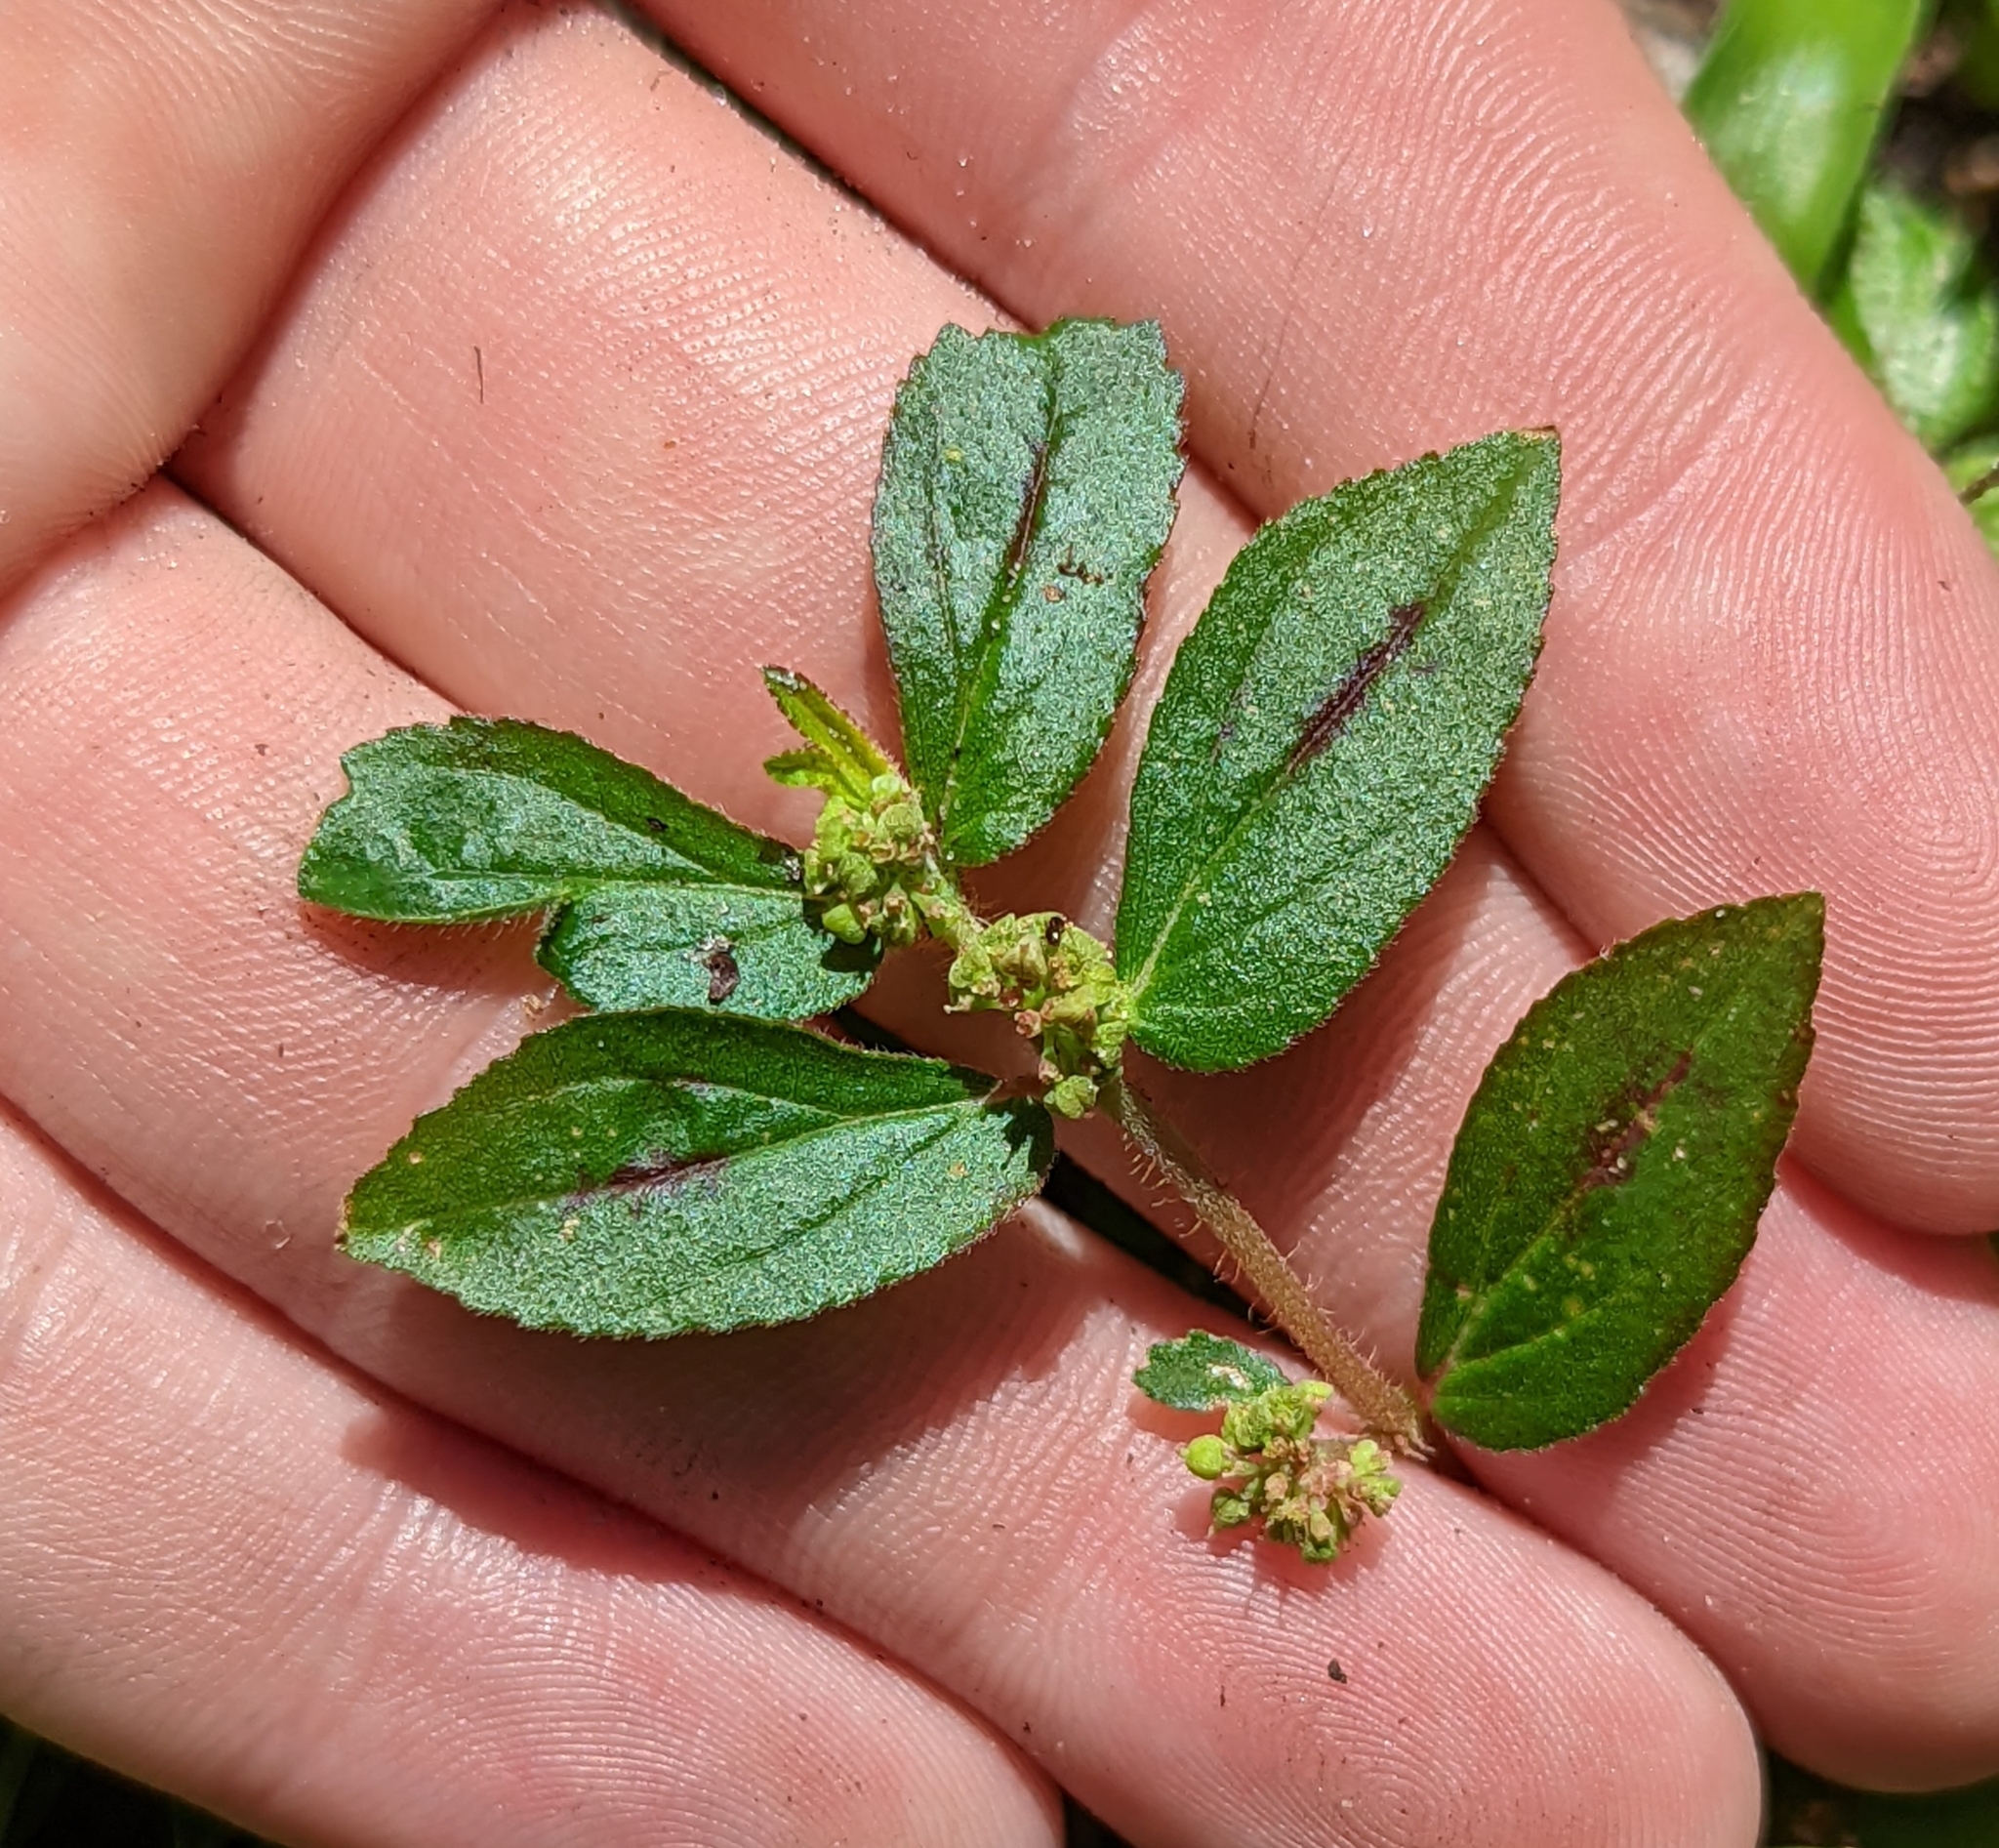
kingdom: Plantae
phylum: Tracheophyta
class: Magnoliopsida
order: Malpighiales
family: Euphorbiaceae
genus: Euphorbia
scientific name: Euphorbia hirta
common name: Pillpod sandmat
